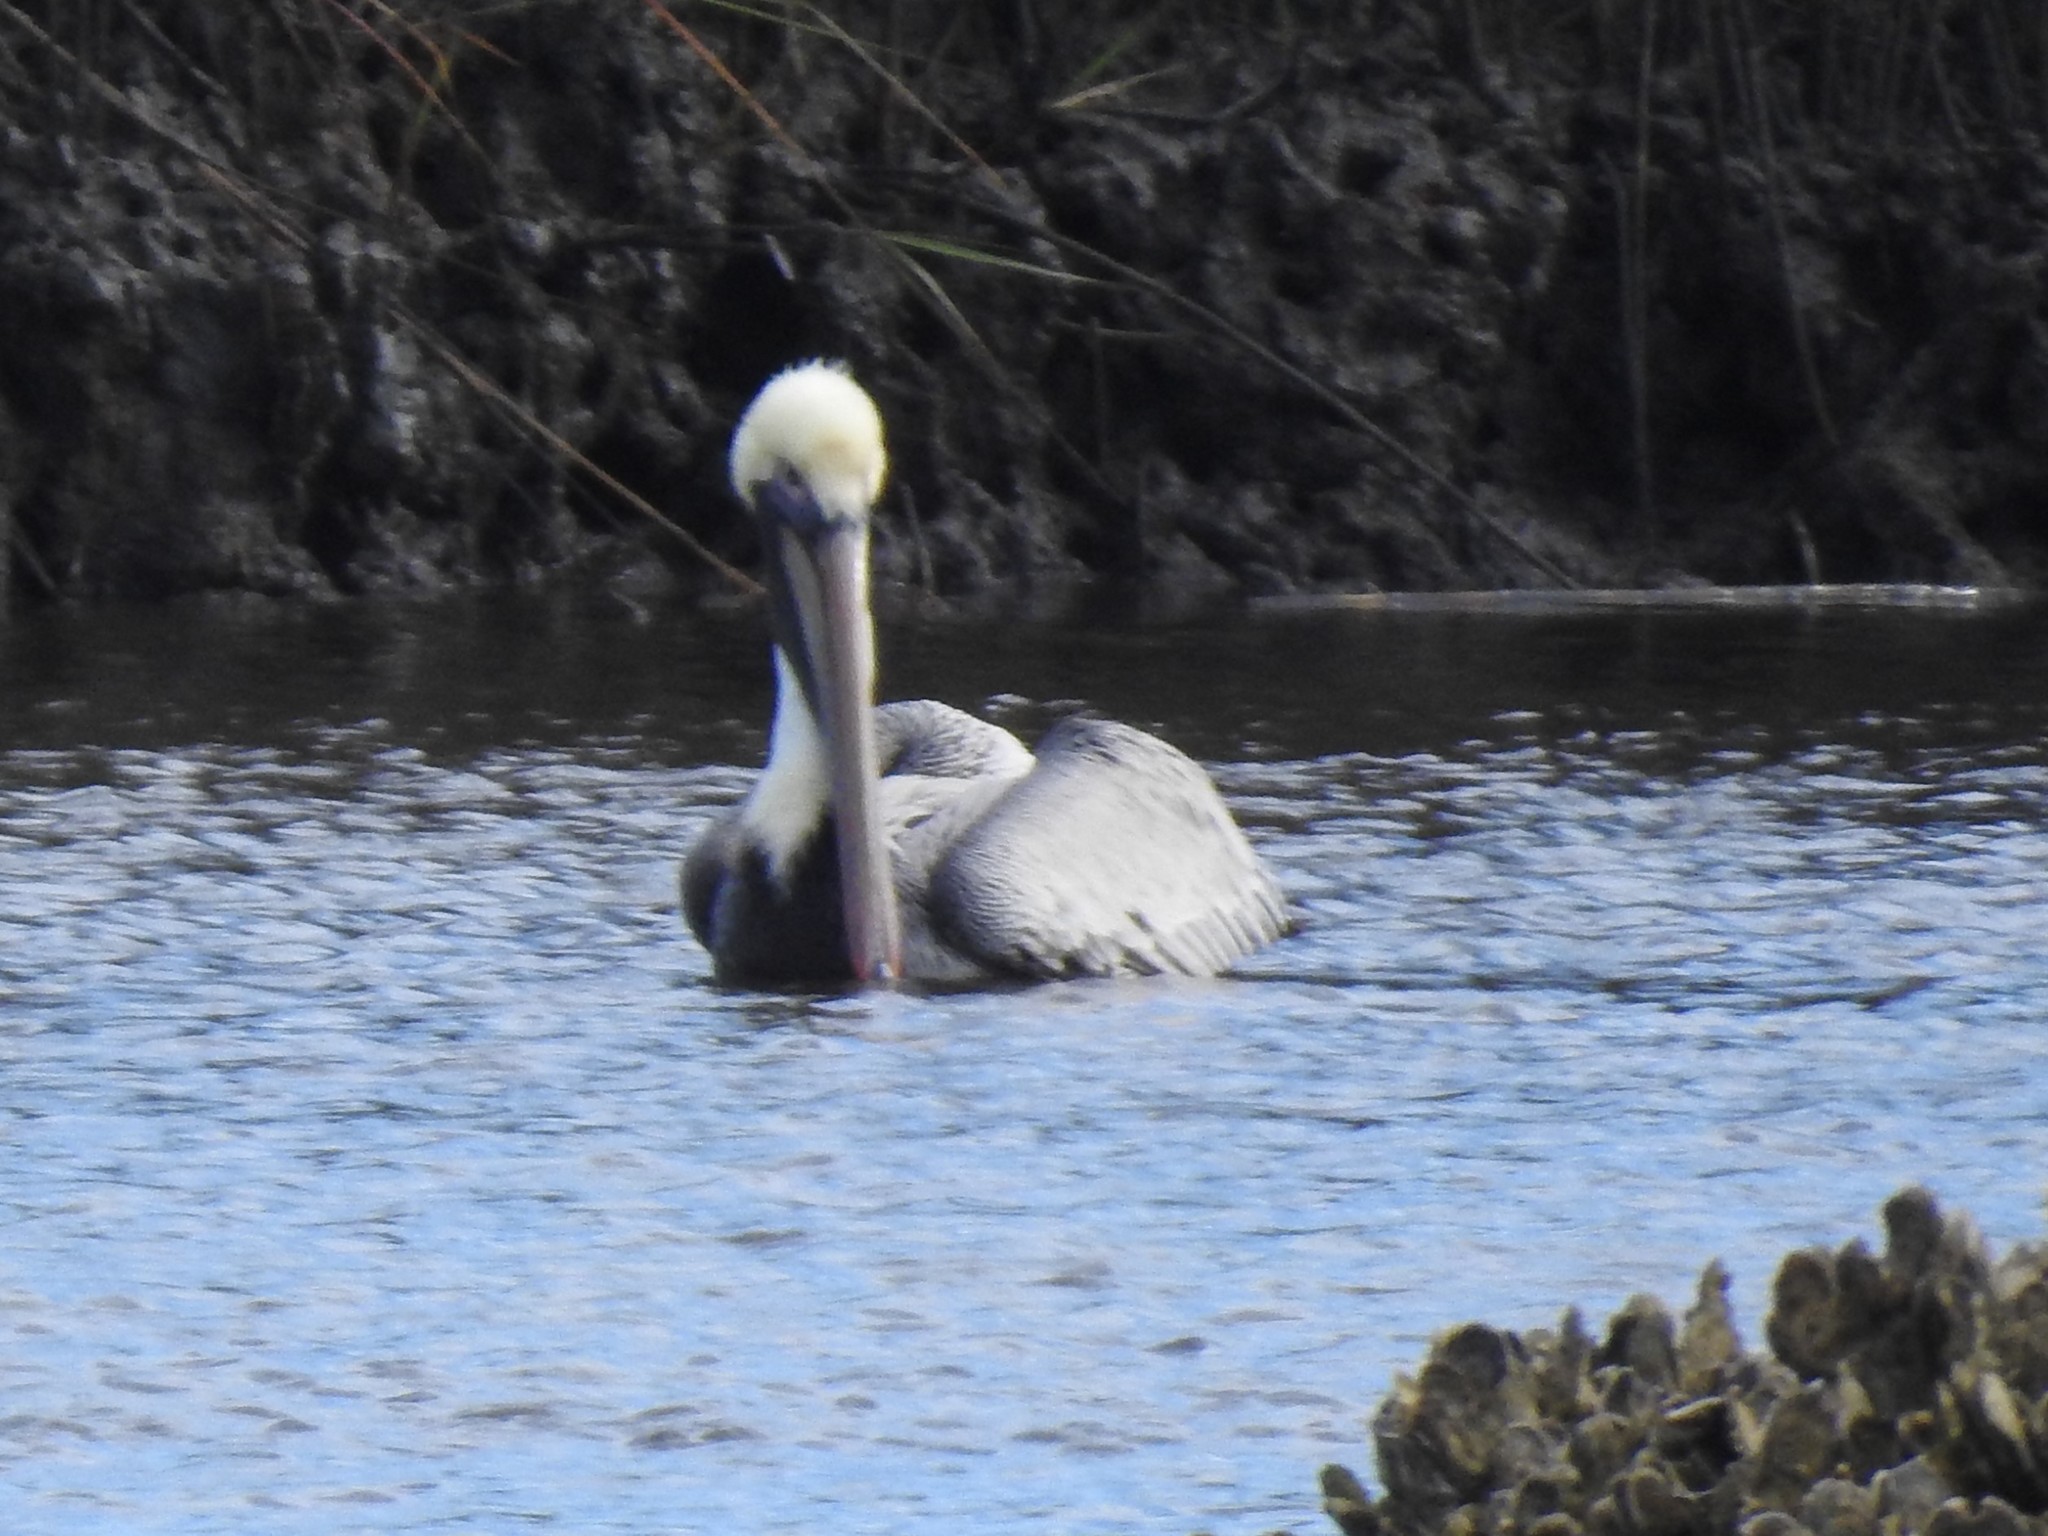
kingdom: Animalia
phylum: Chordata
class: Aves
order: Pelecaniformes
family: Pelecanidae
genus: Pelecanus
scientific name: Pelecanus occidentalis
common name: Brown pelican
